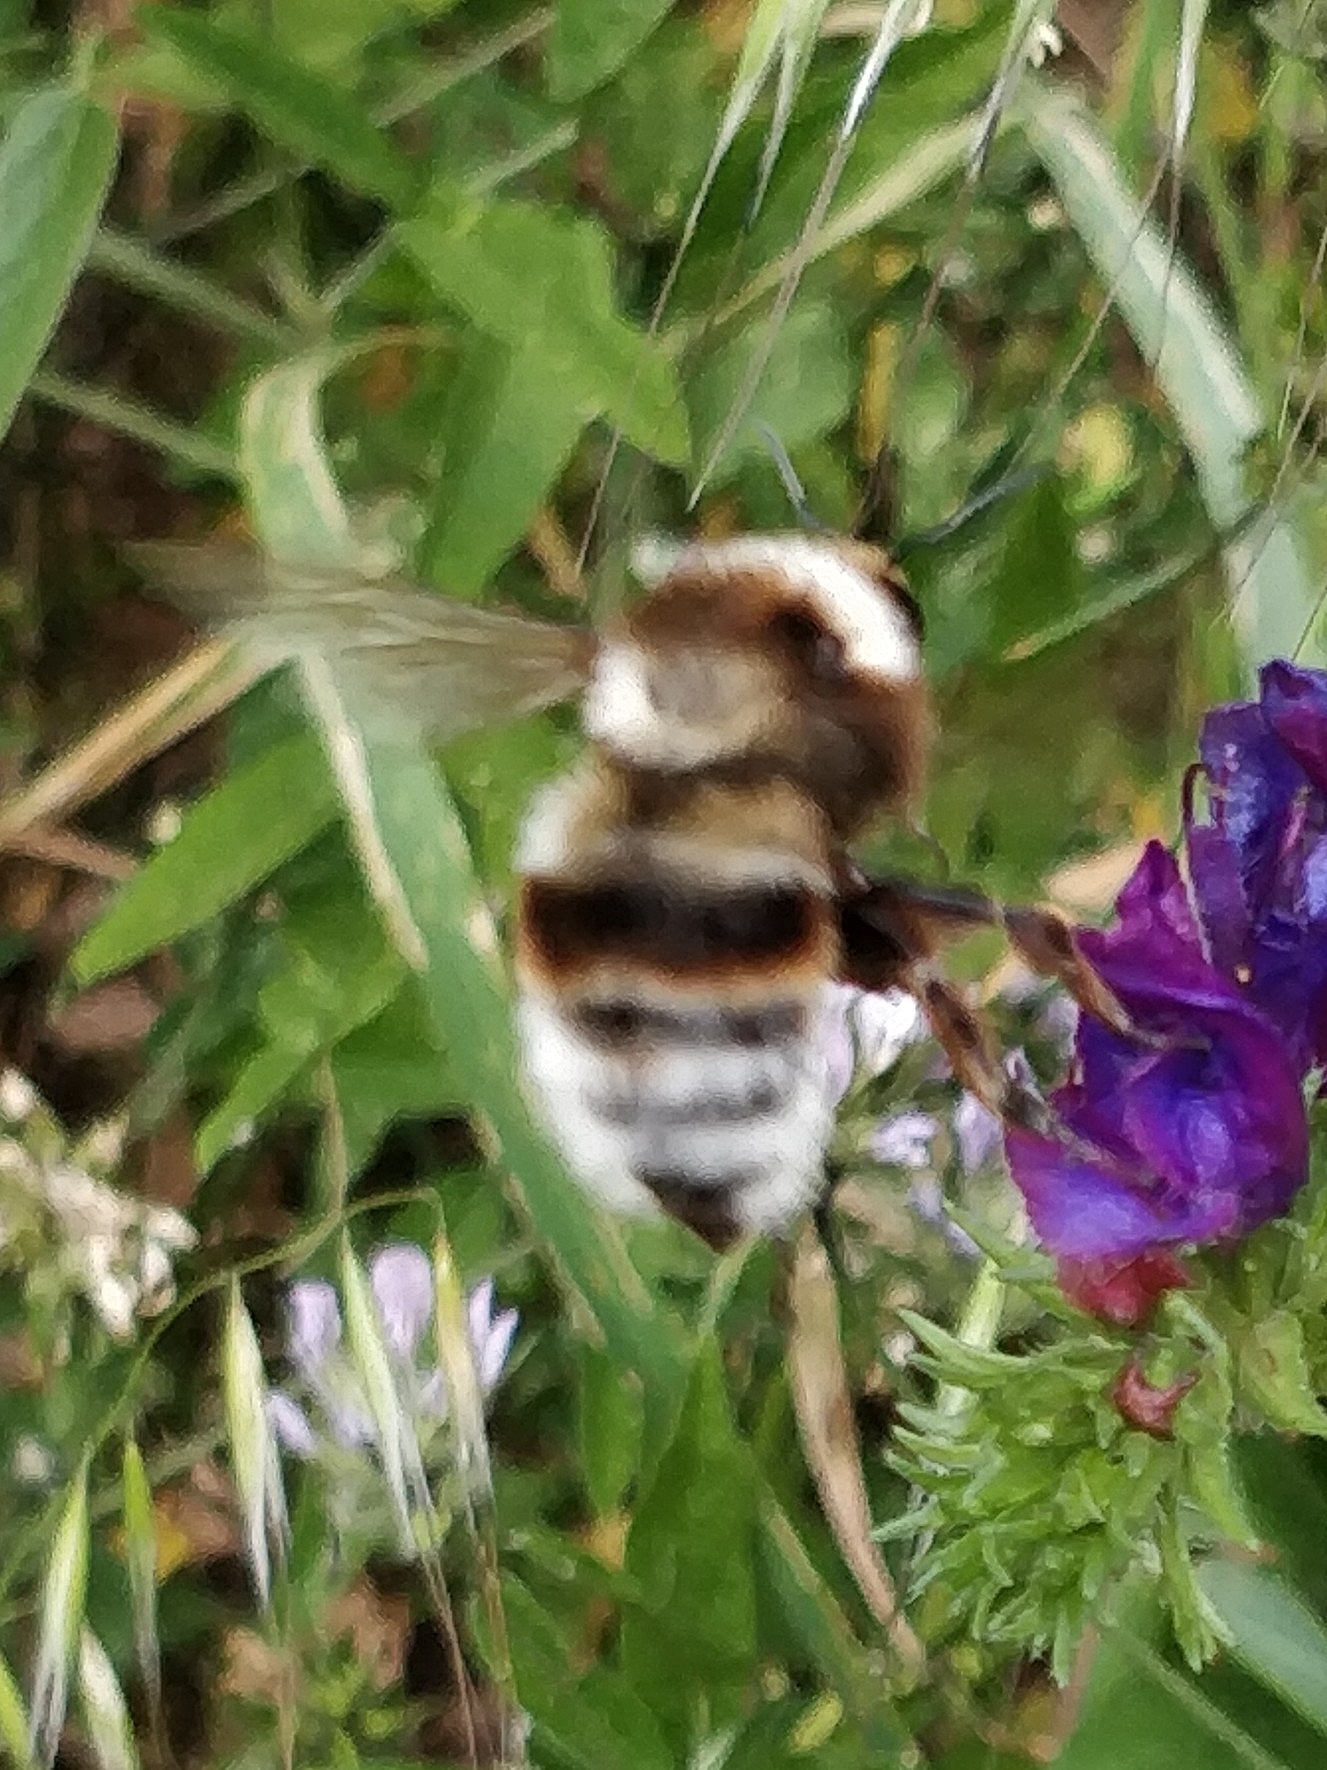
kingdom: Animalia
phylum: Arthropoda
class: Insecta
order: Hymenoptera
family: Apidae
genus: Bombus
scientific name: Bombus ruderatus
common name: Large garden bumblebee
